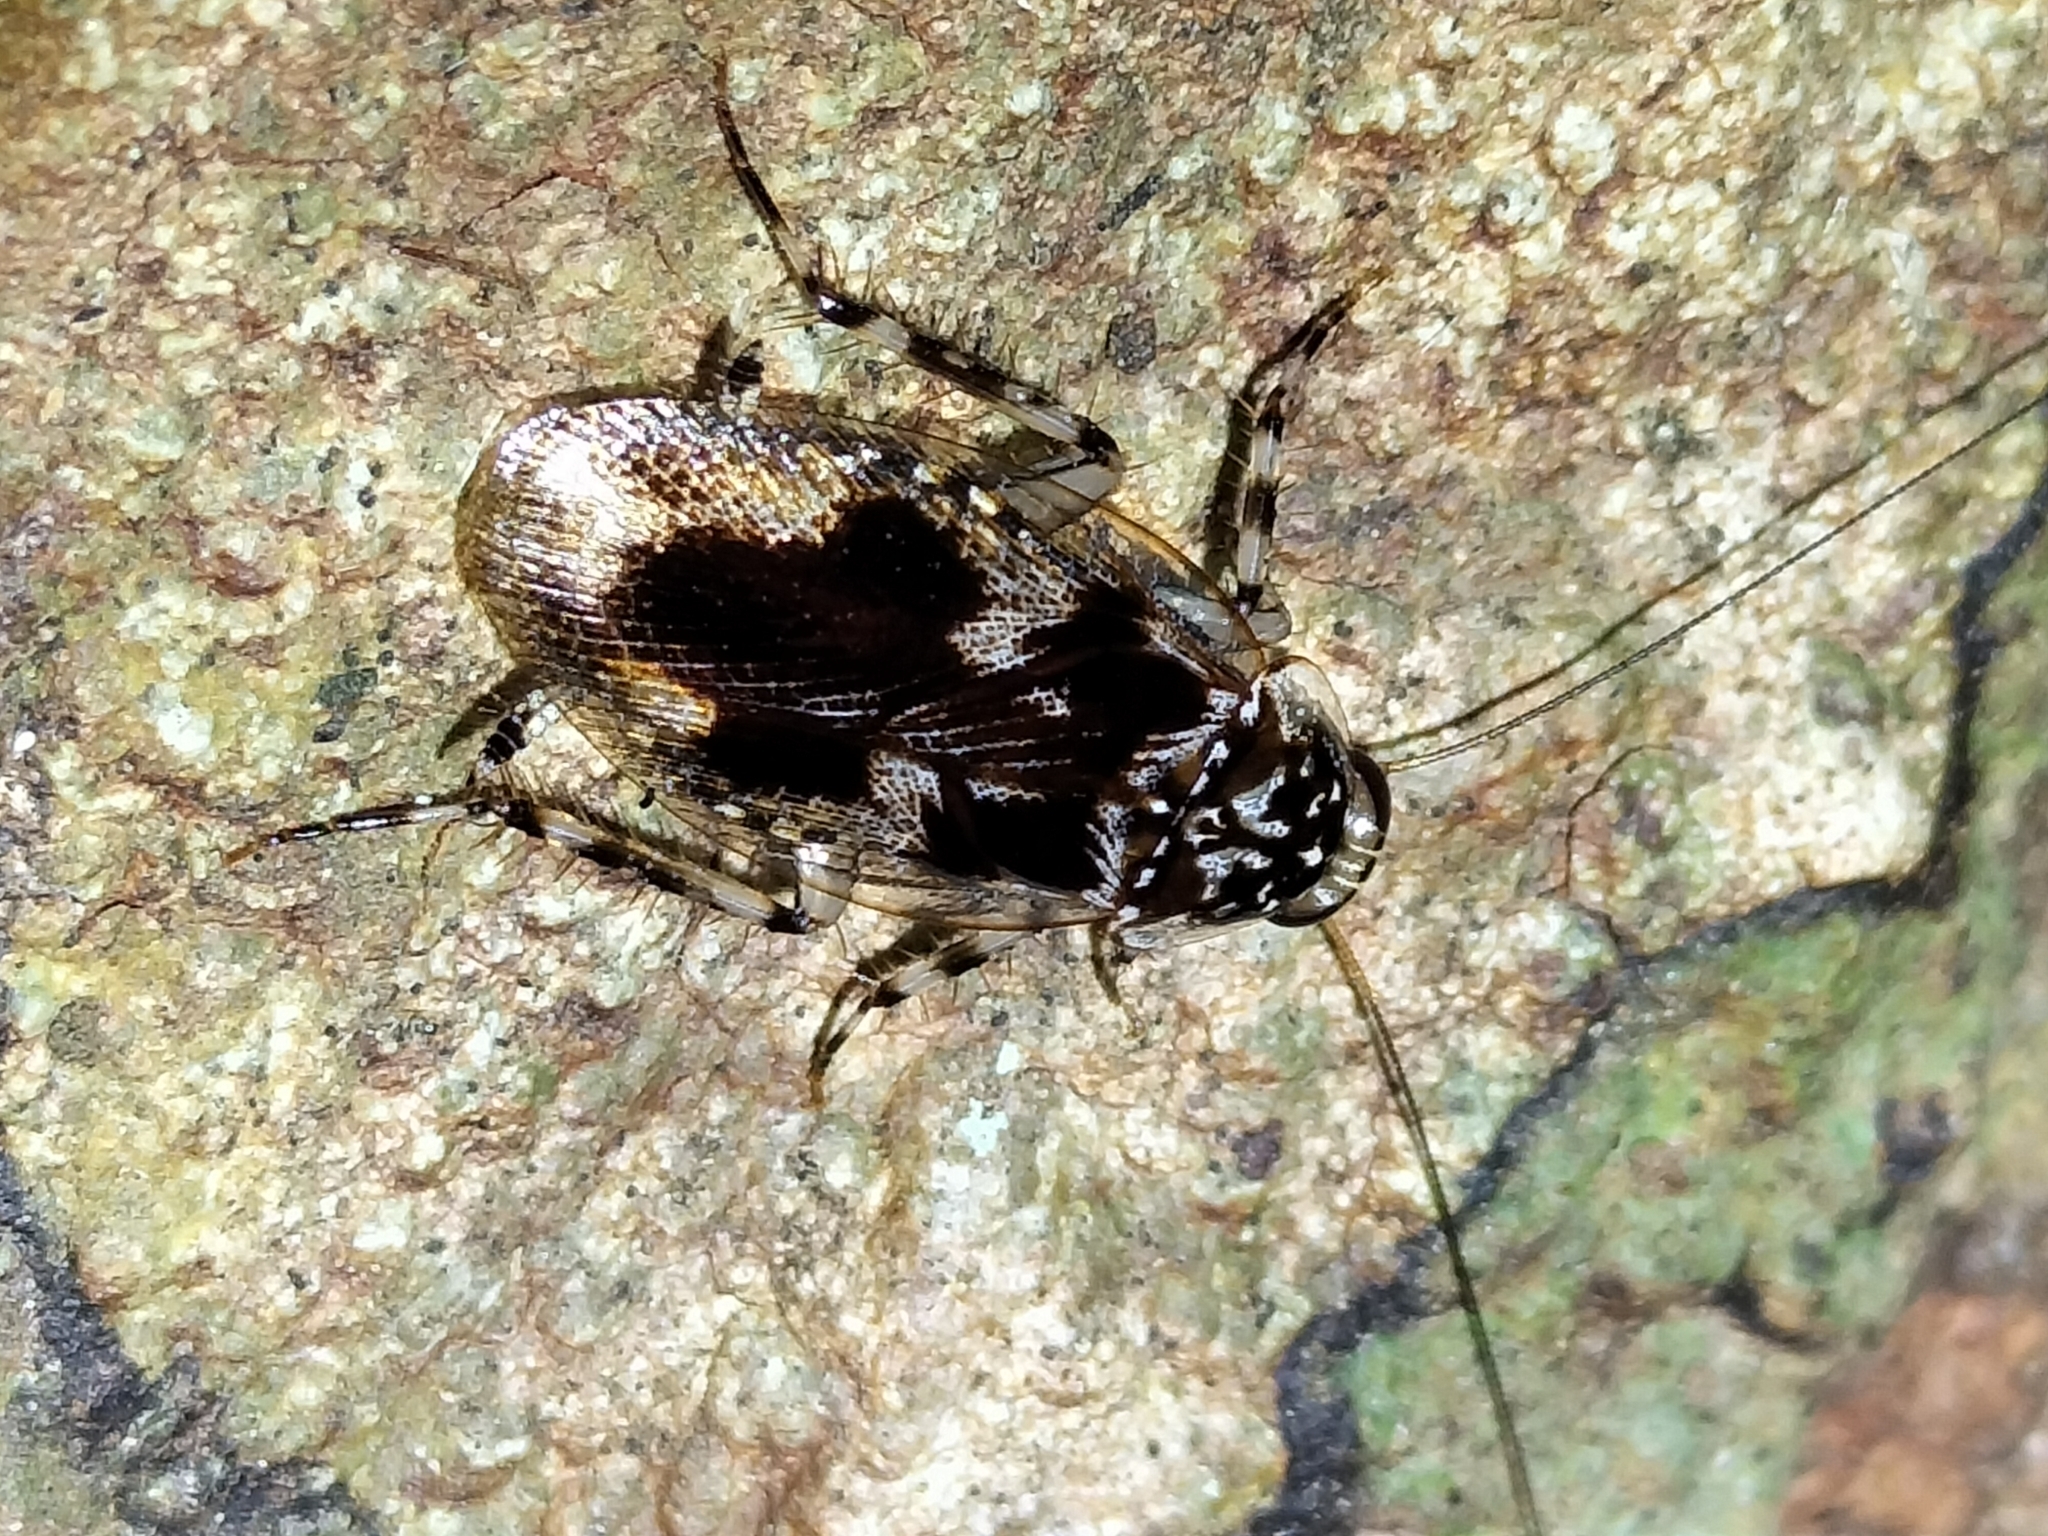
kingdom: Animalia
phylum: Arthropoda
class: Insecta
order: Blattodea
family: Ectobiidae
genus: Allacta
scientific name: Allacta australiensis
